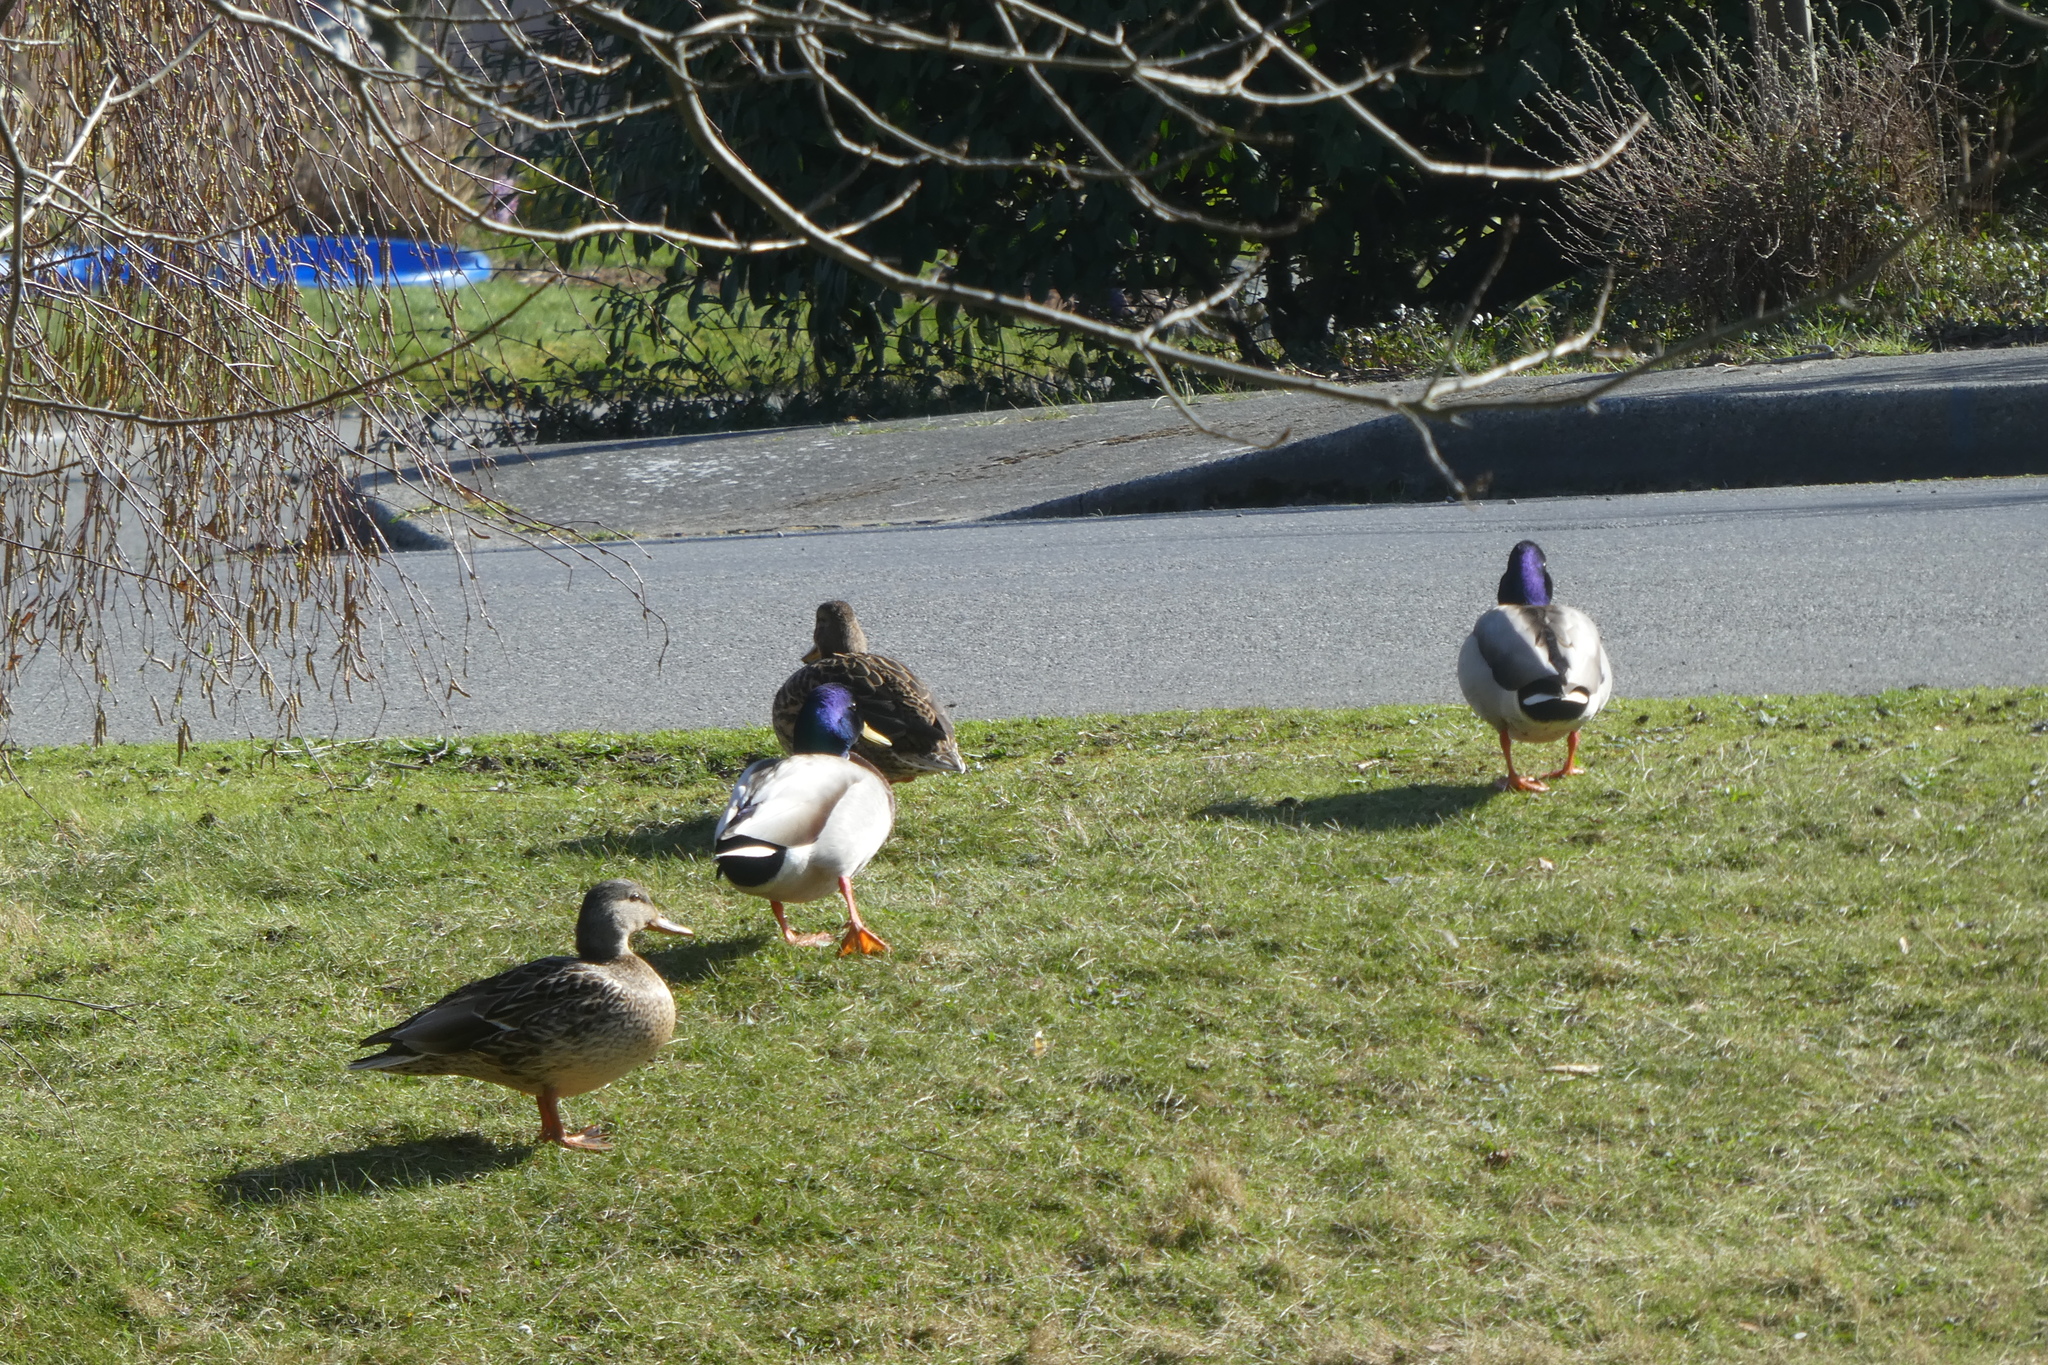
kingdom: Animalia
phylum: Chordata
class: Aves
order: Anseriformes
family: Anatidae
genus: Anas
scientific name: Anas platyrhynchos
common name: Mallard
